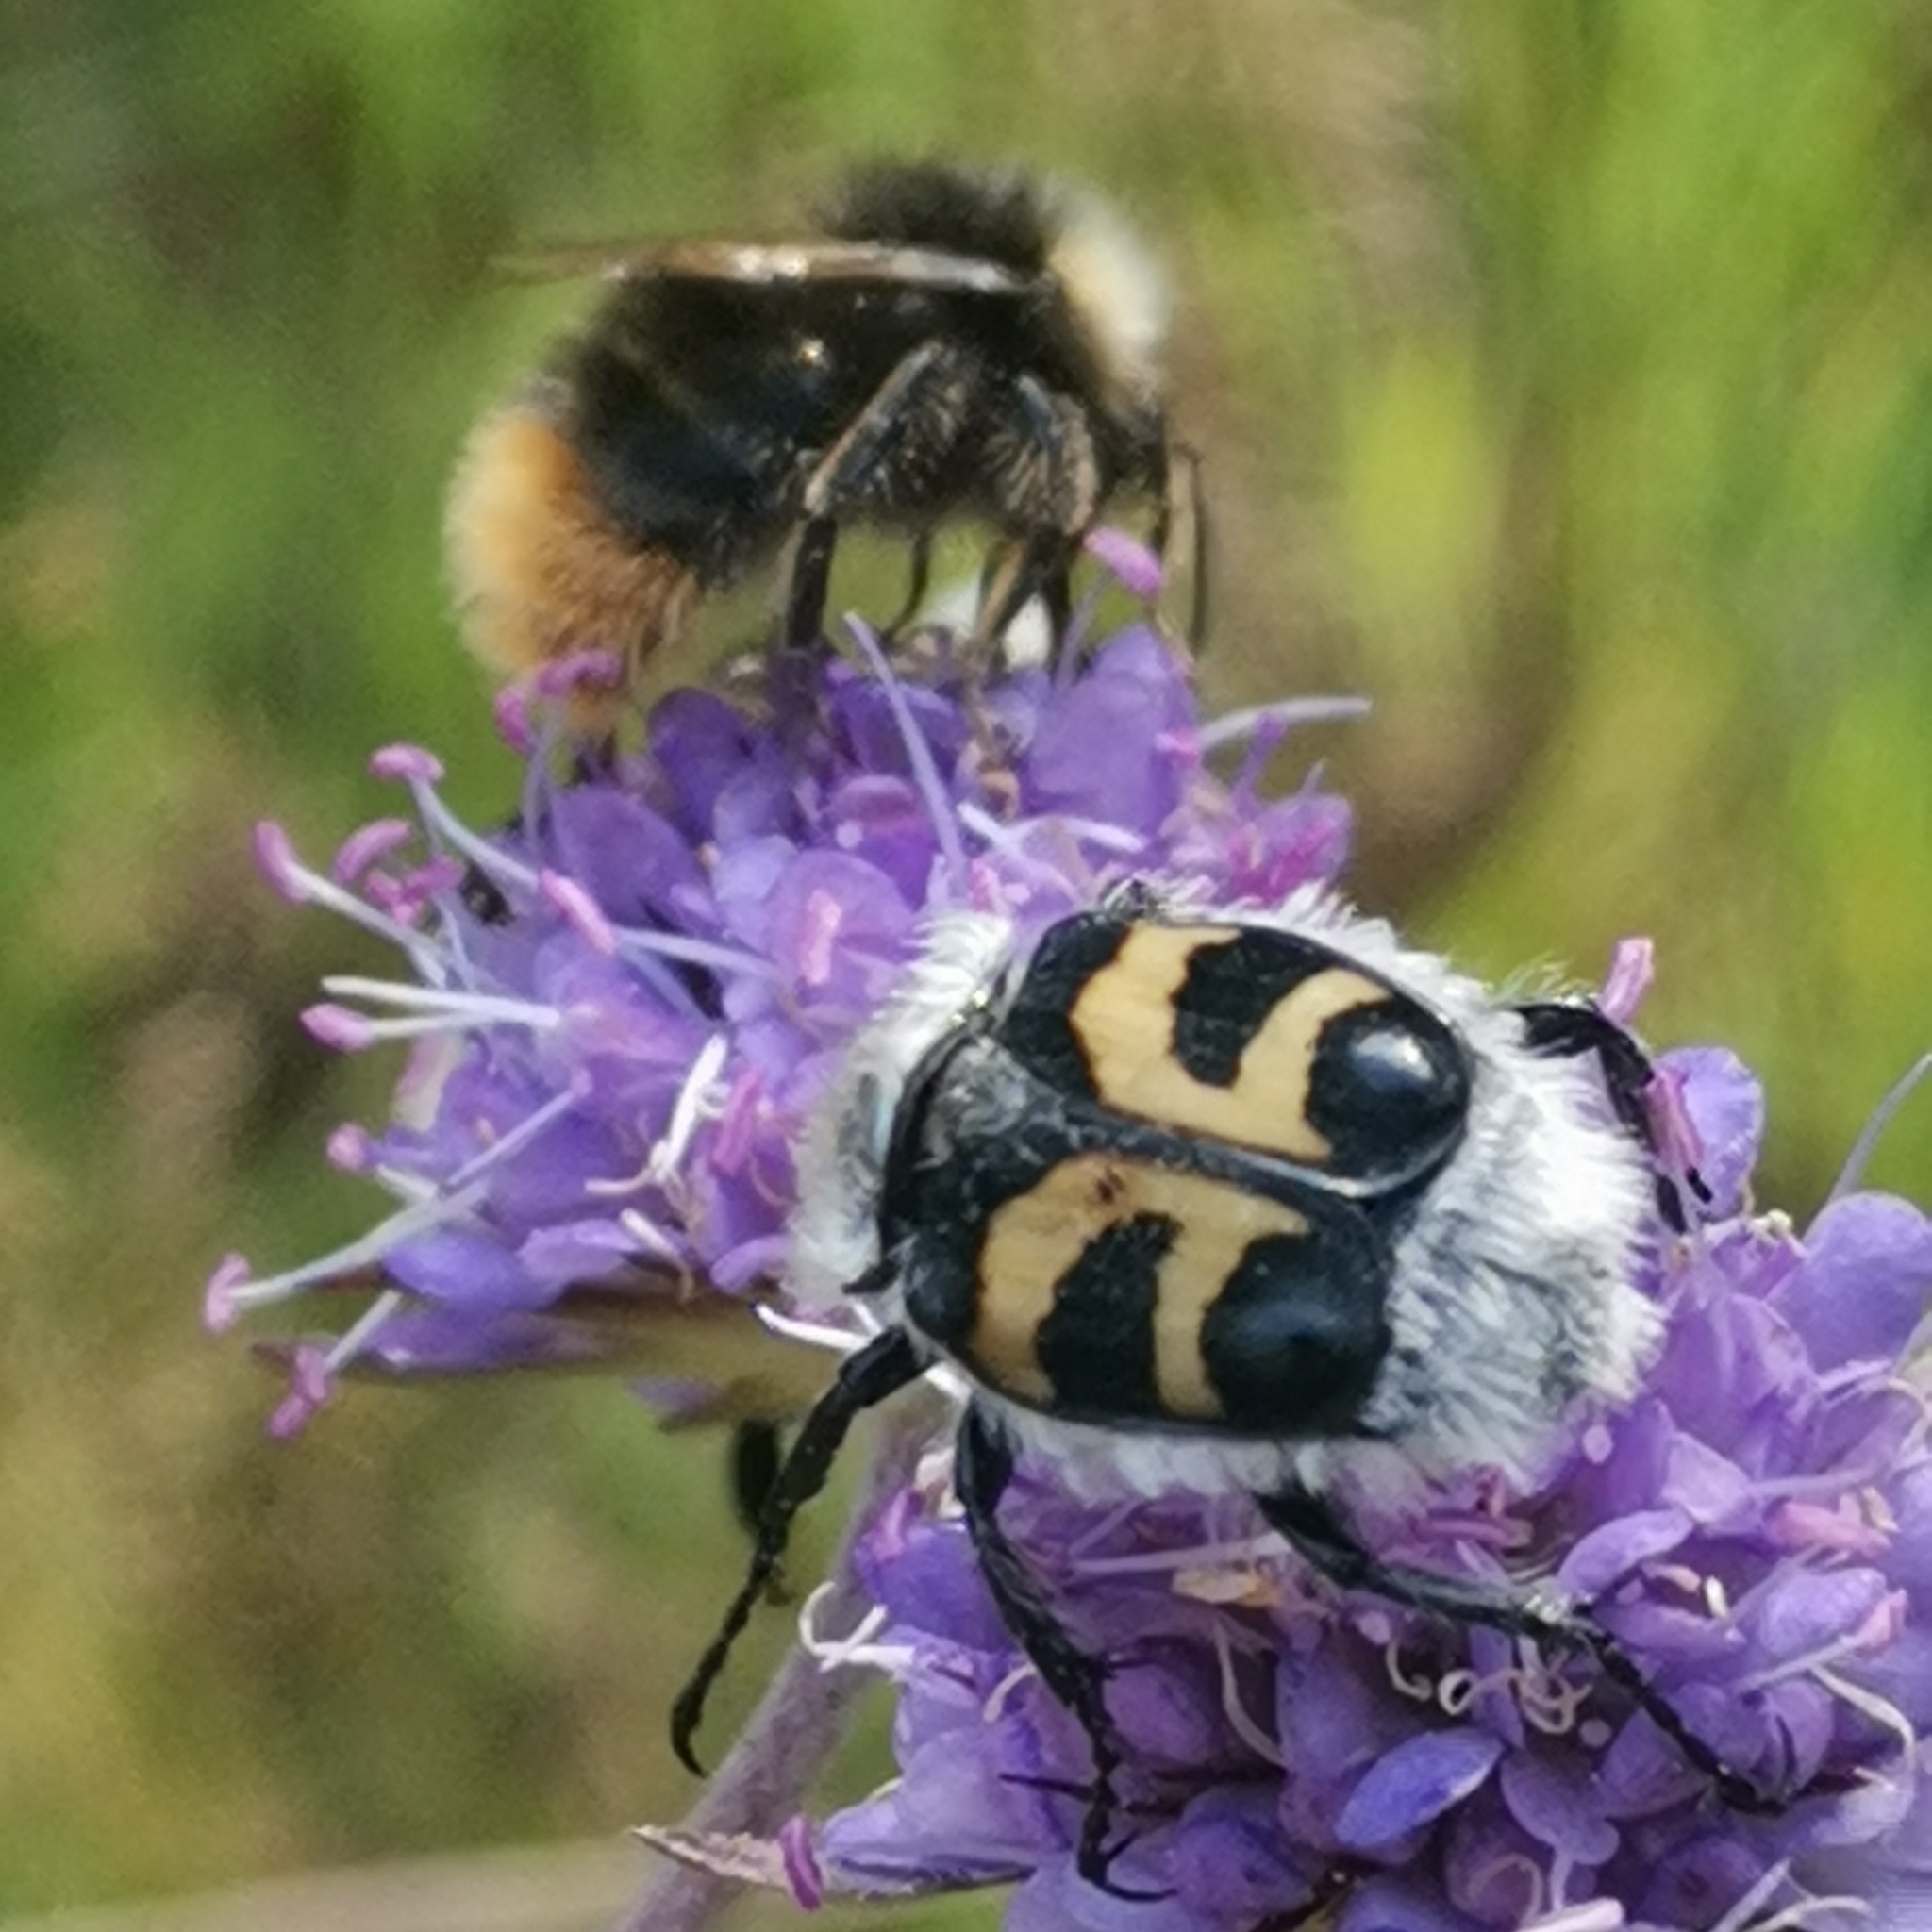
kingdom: Animalia
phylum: Arthropoda
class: Insecta
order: Coleoptera
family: Scarabaeidae
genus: Trichius
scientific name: Trichius fasciatus
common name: Bee beetle
